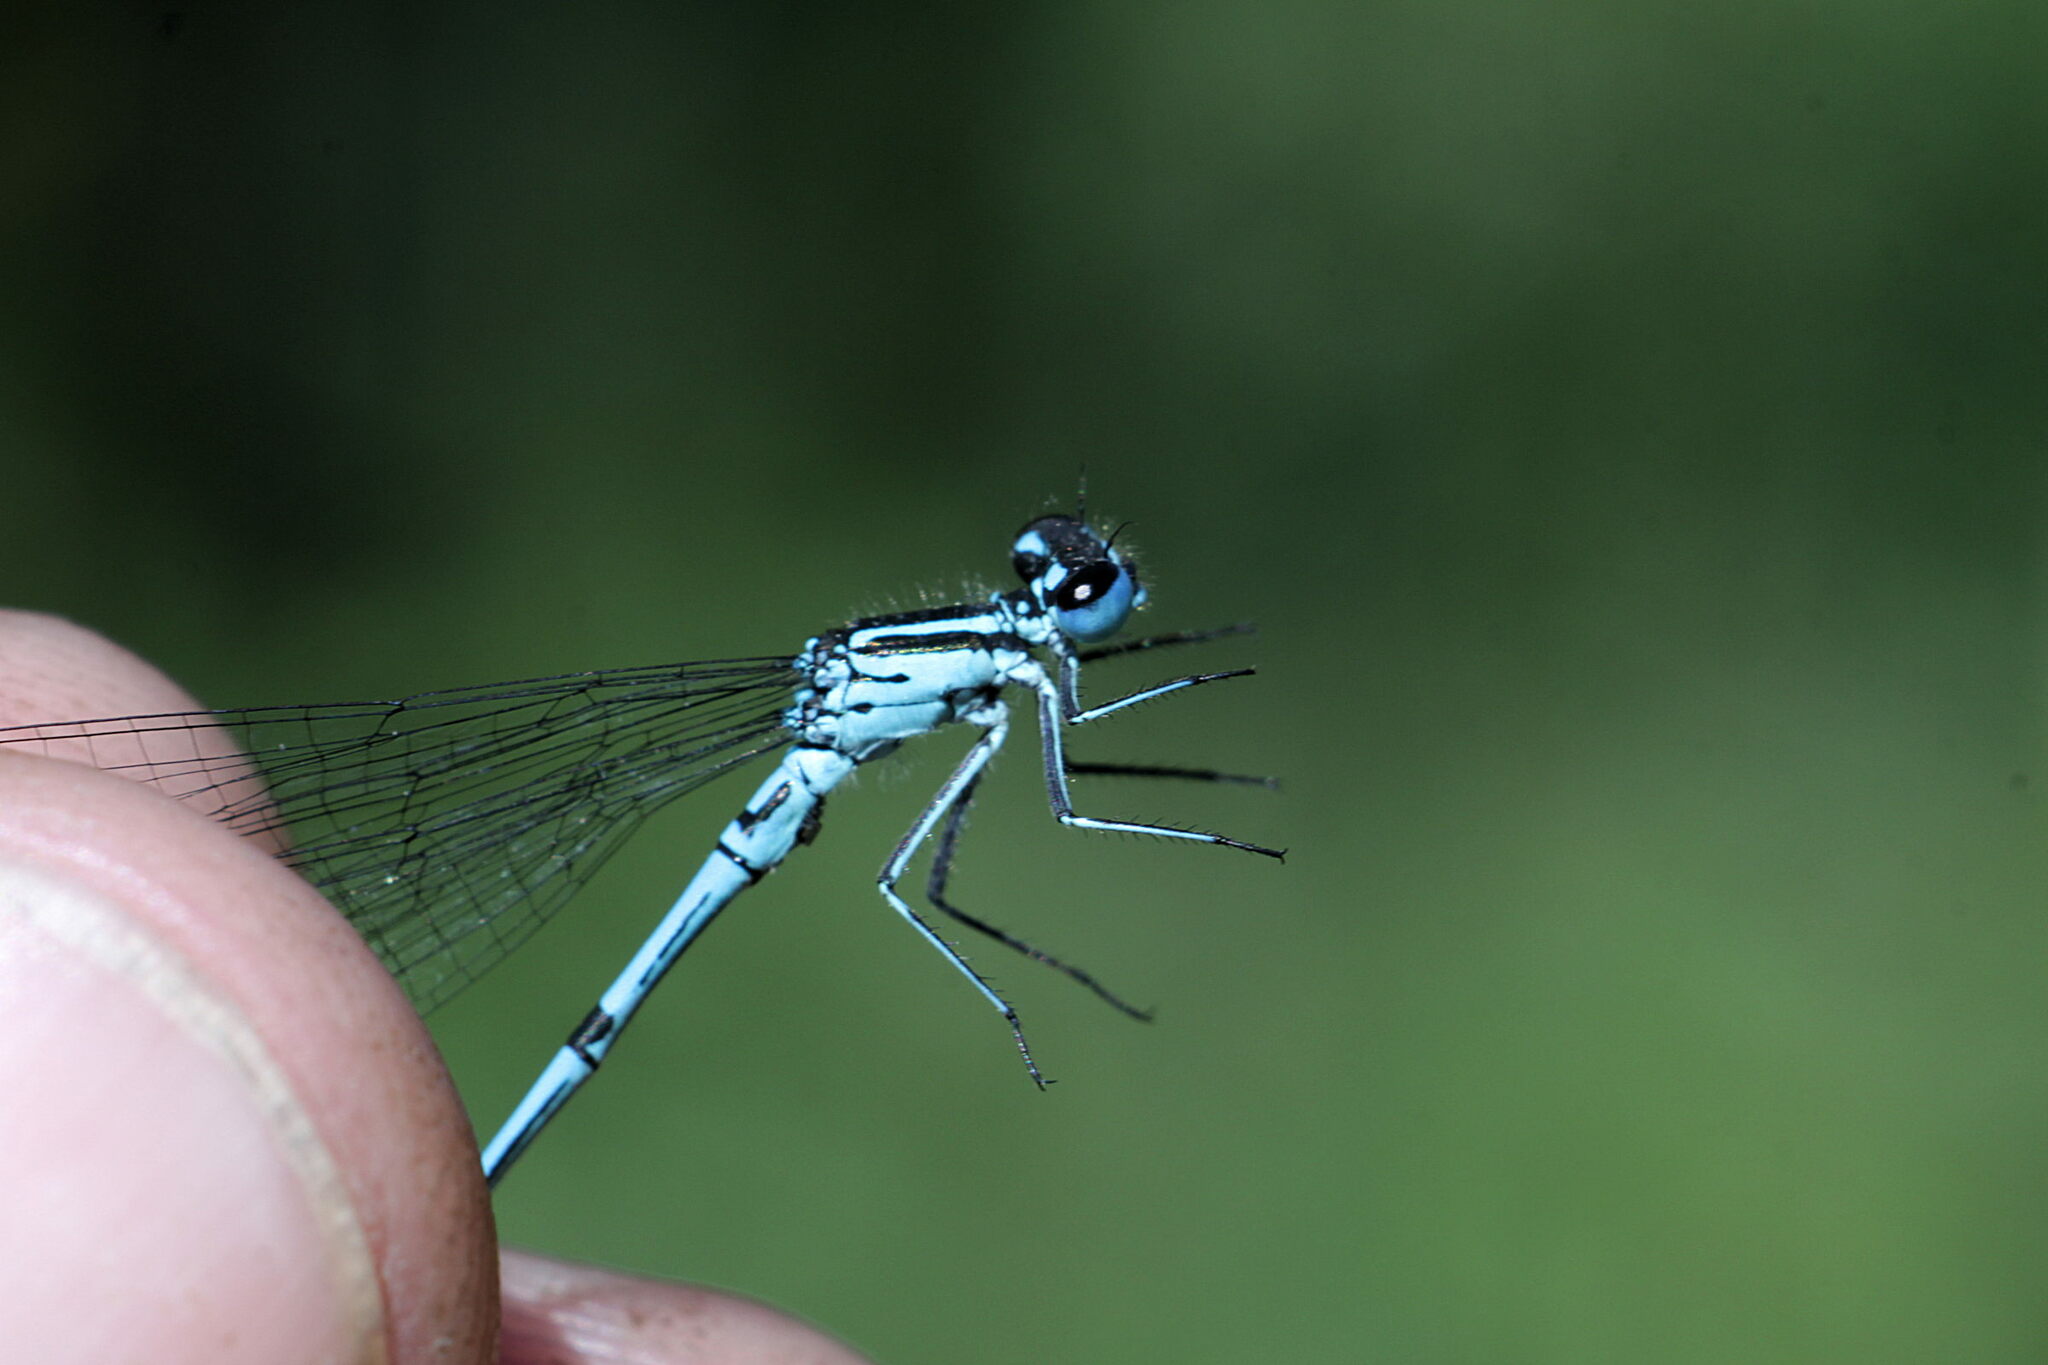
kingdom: Animalia
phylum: Arthropoda
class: Insecta
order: Odonata
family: Coenagrionidae
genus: Coenagrion
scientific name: Coenagrion puella
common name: Azure damselfly
